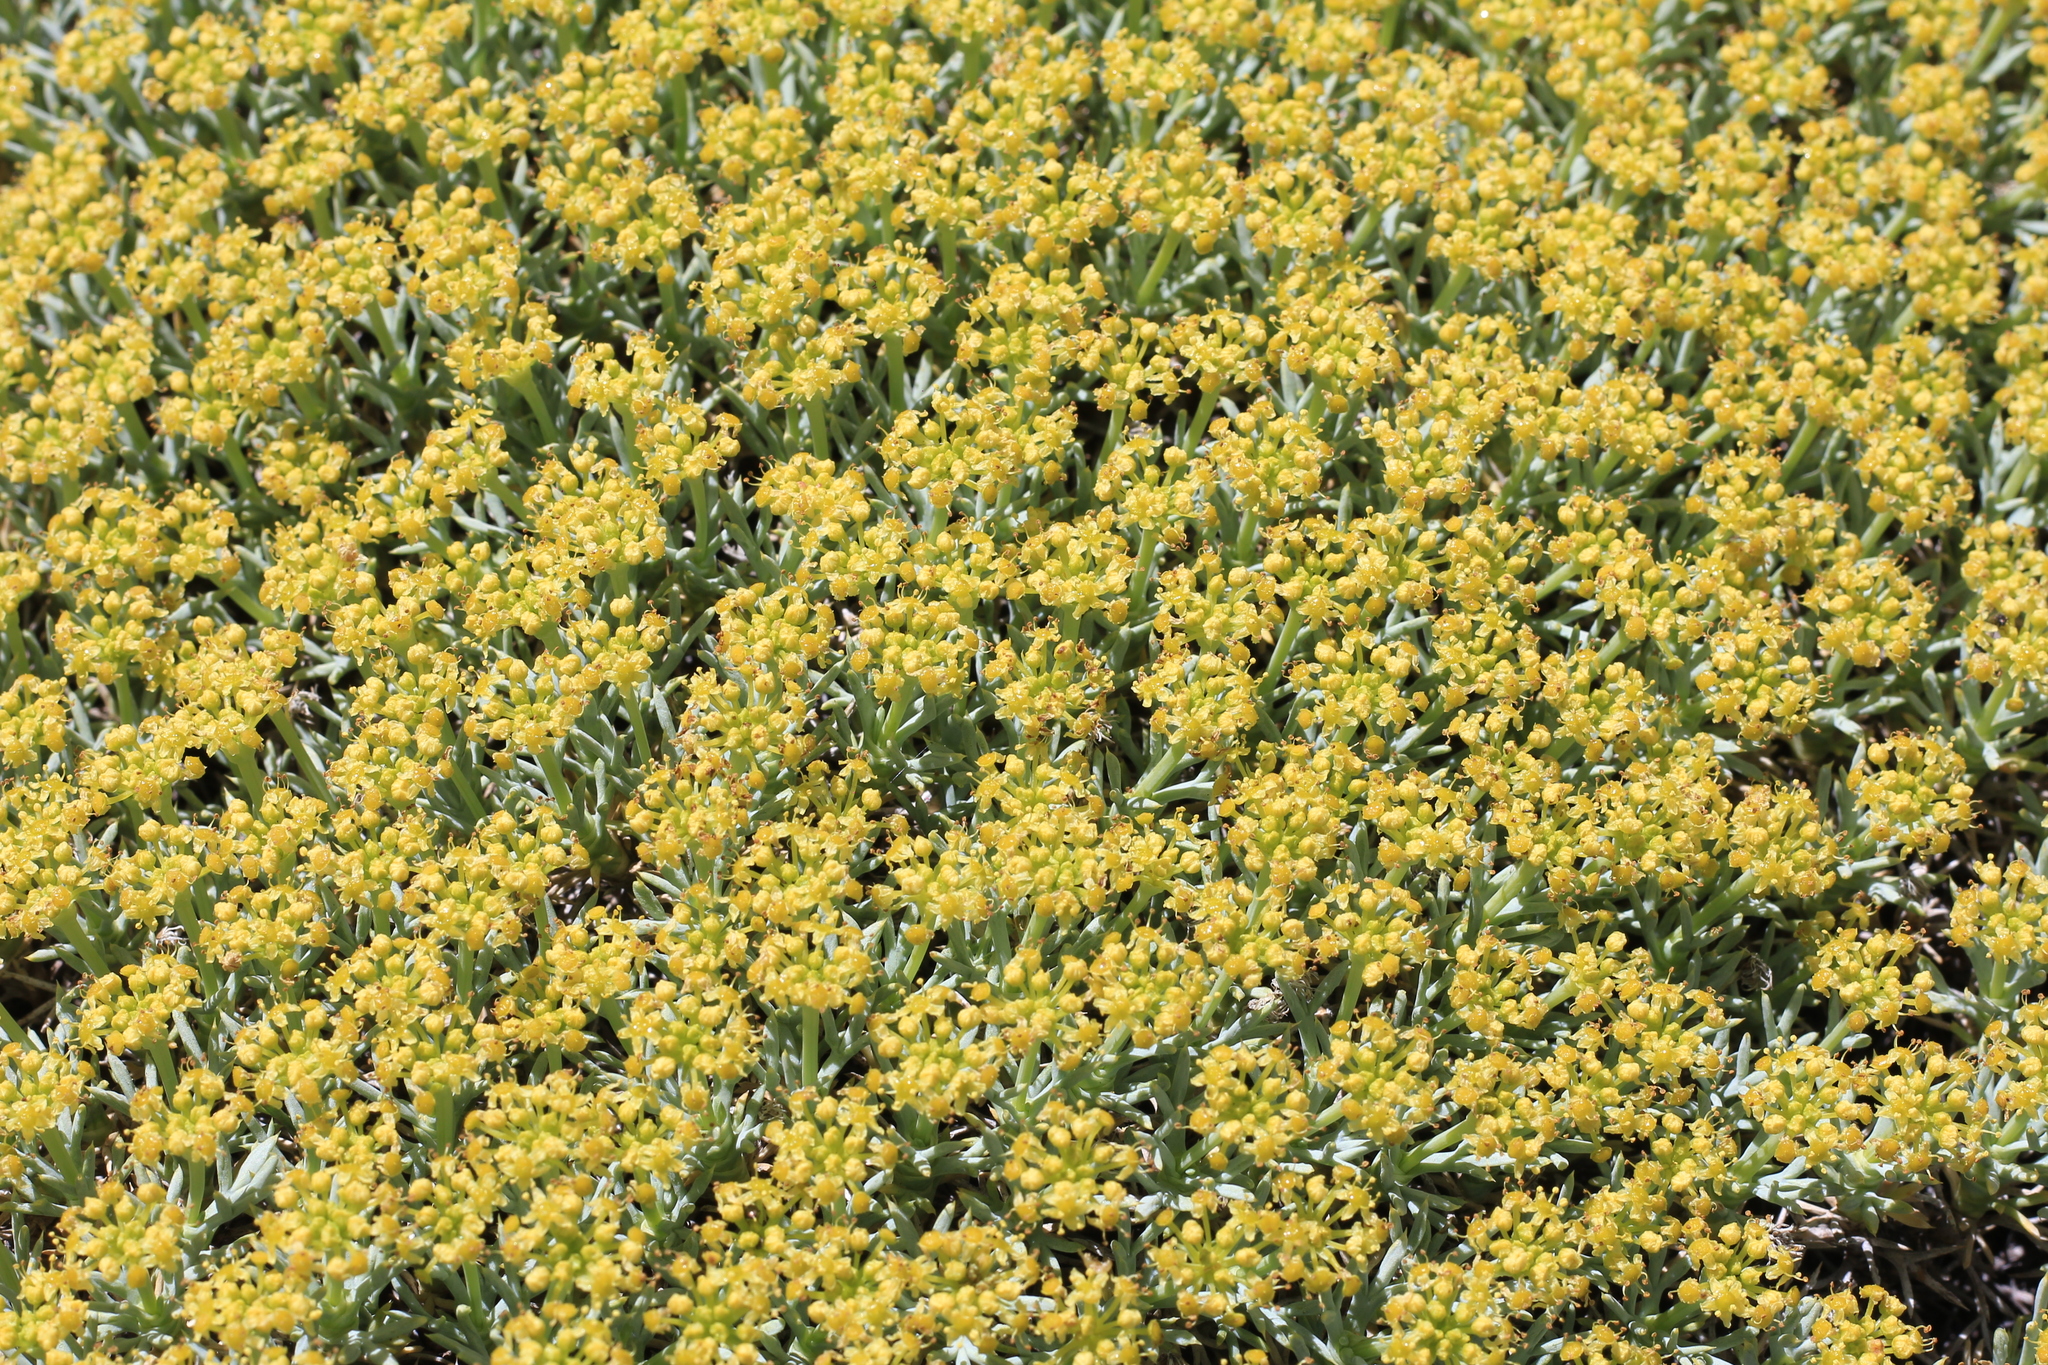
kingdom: Plantae
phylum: Tracheophyta
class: Magnoliopsida
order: Apiales
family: Apiaceae
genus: Azorella
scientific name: Azorella prolifera
